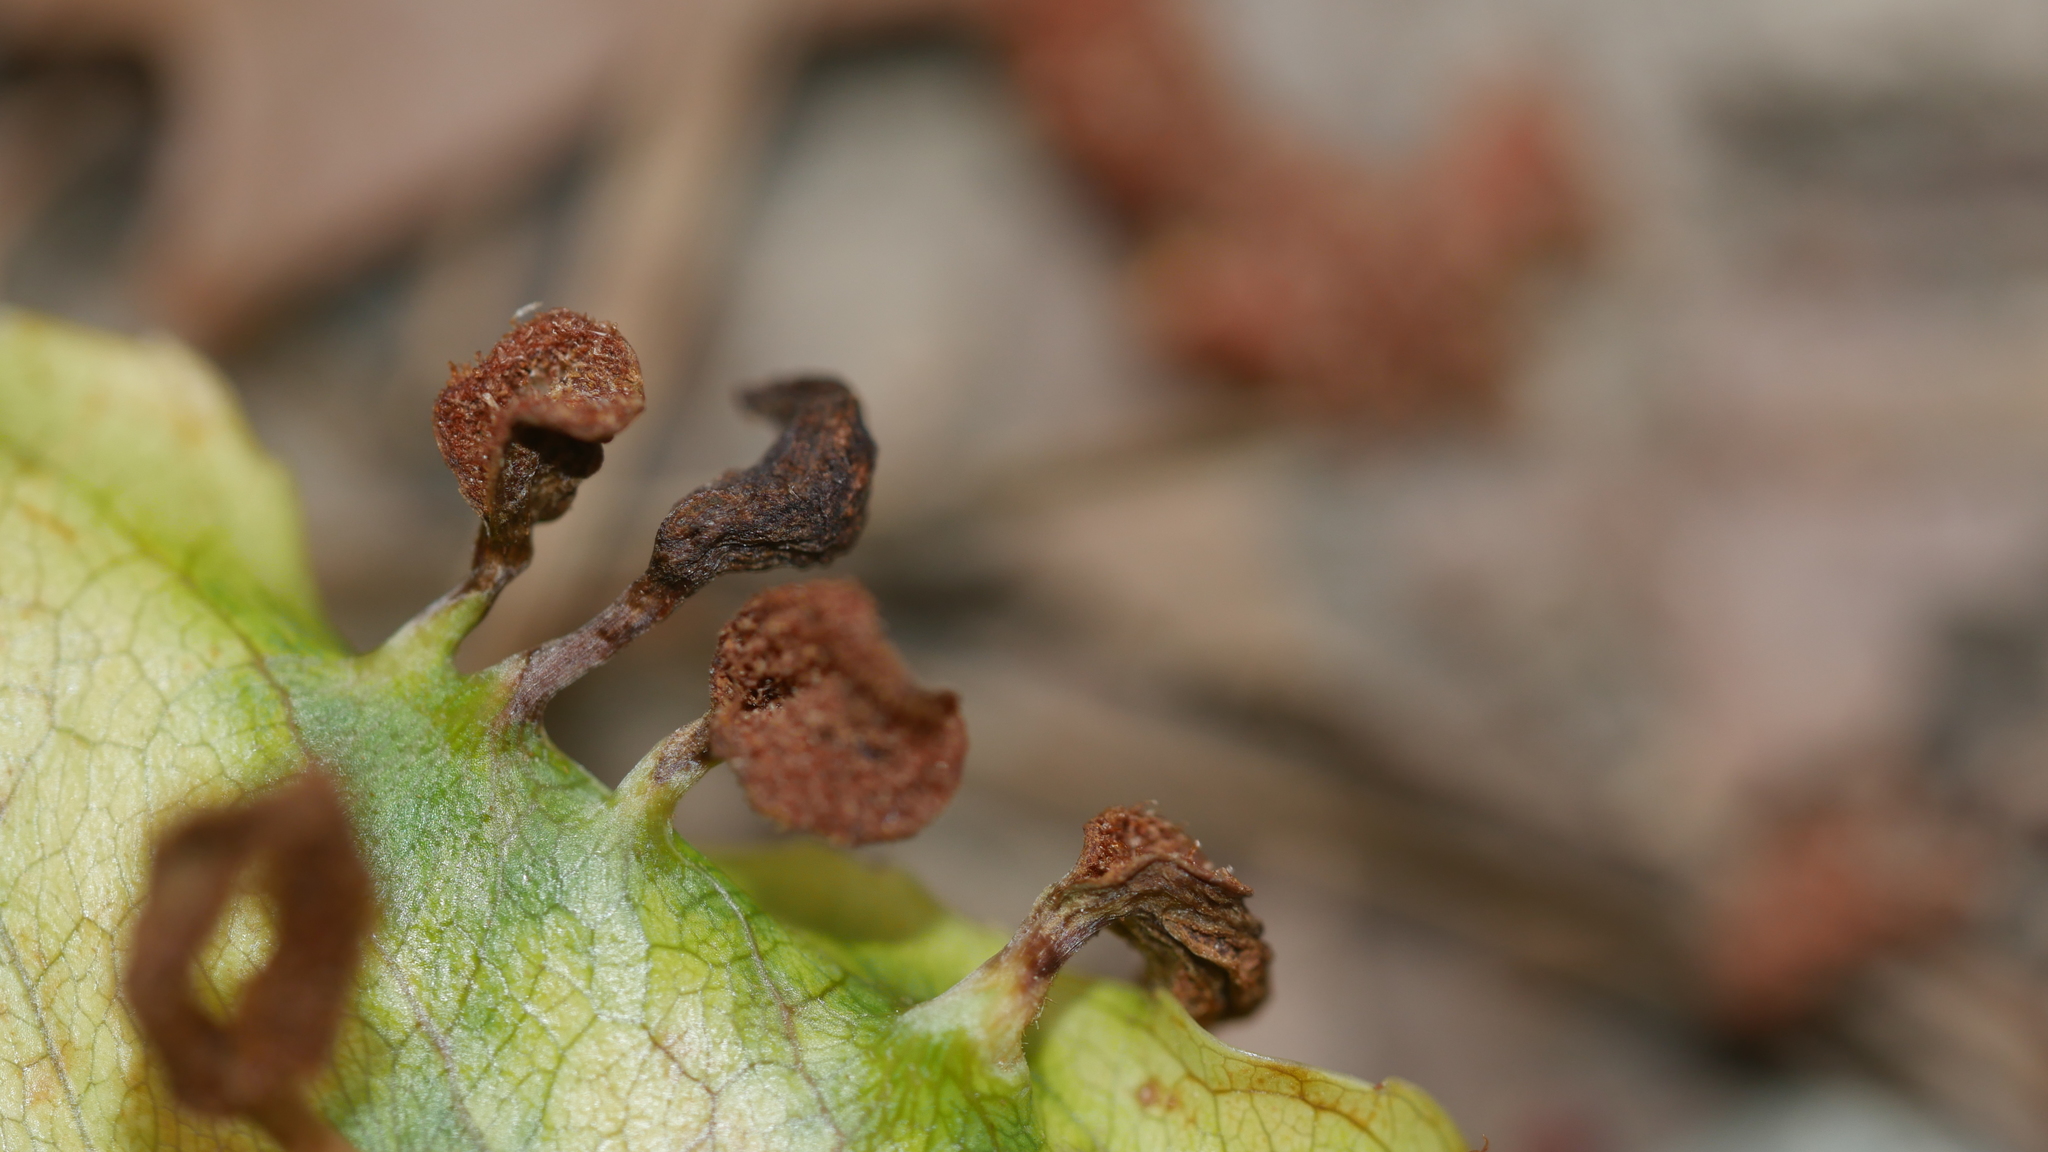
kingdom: Animalia
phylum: Arthropoda
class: Arachnida
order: Trombidiformes
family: Eriophyidae
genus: Eriophyes
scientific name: Eriophyes
